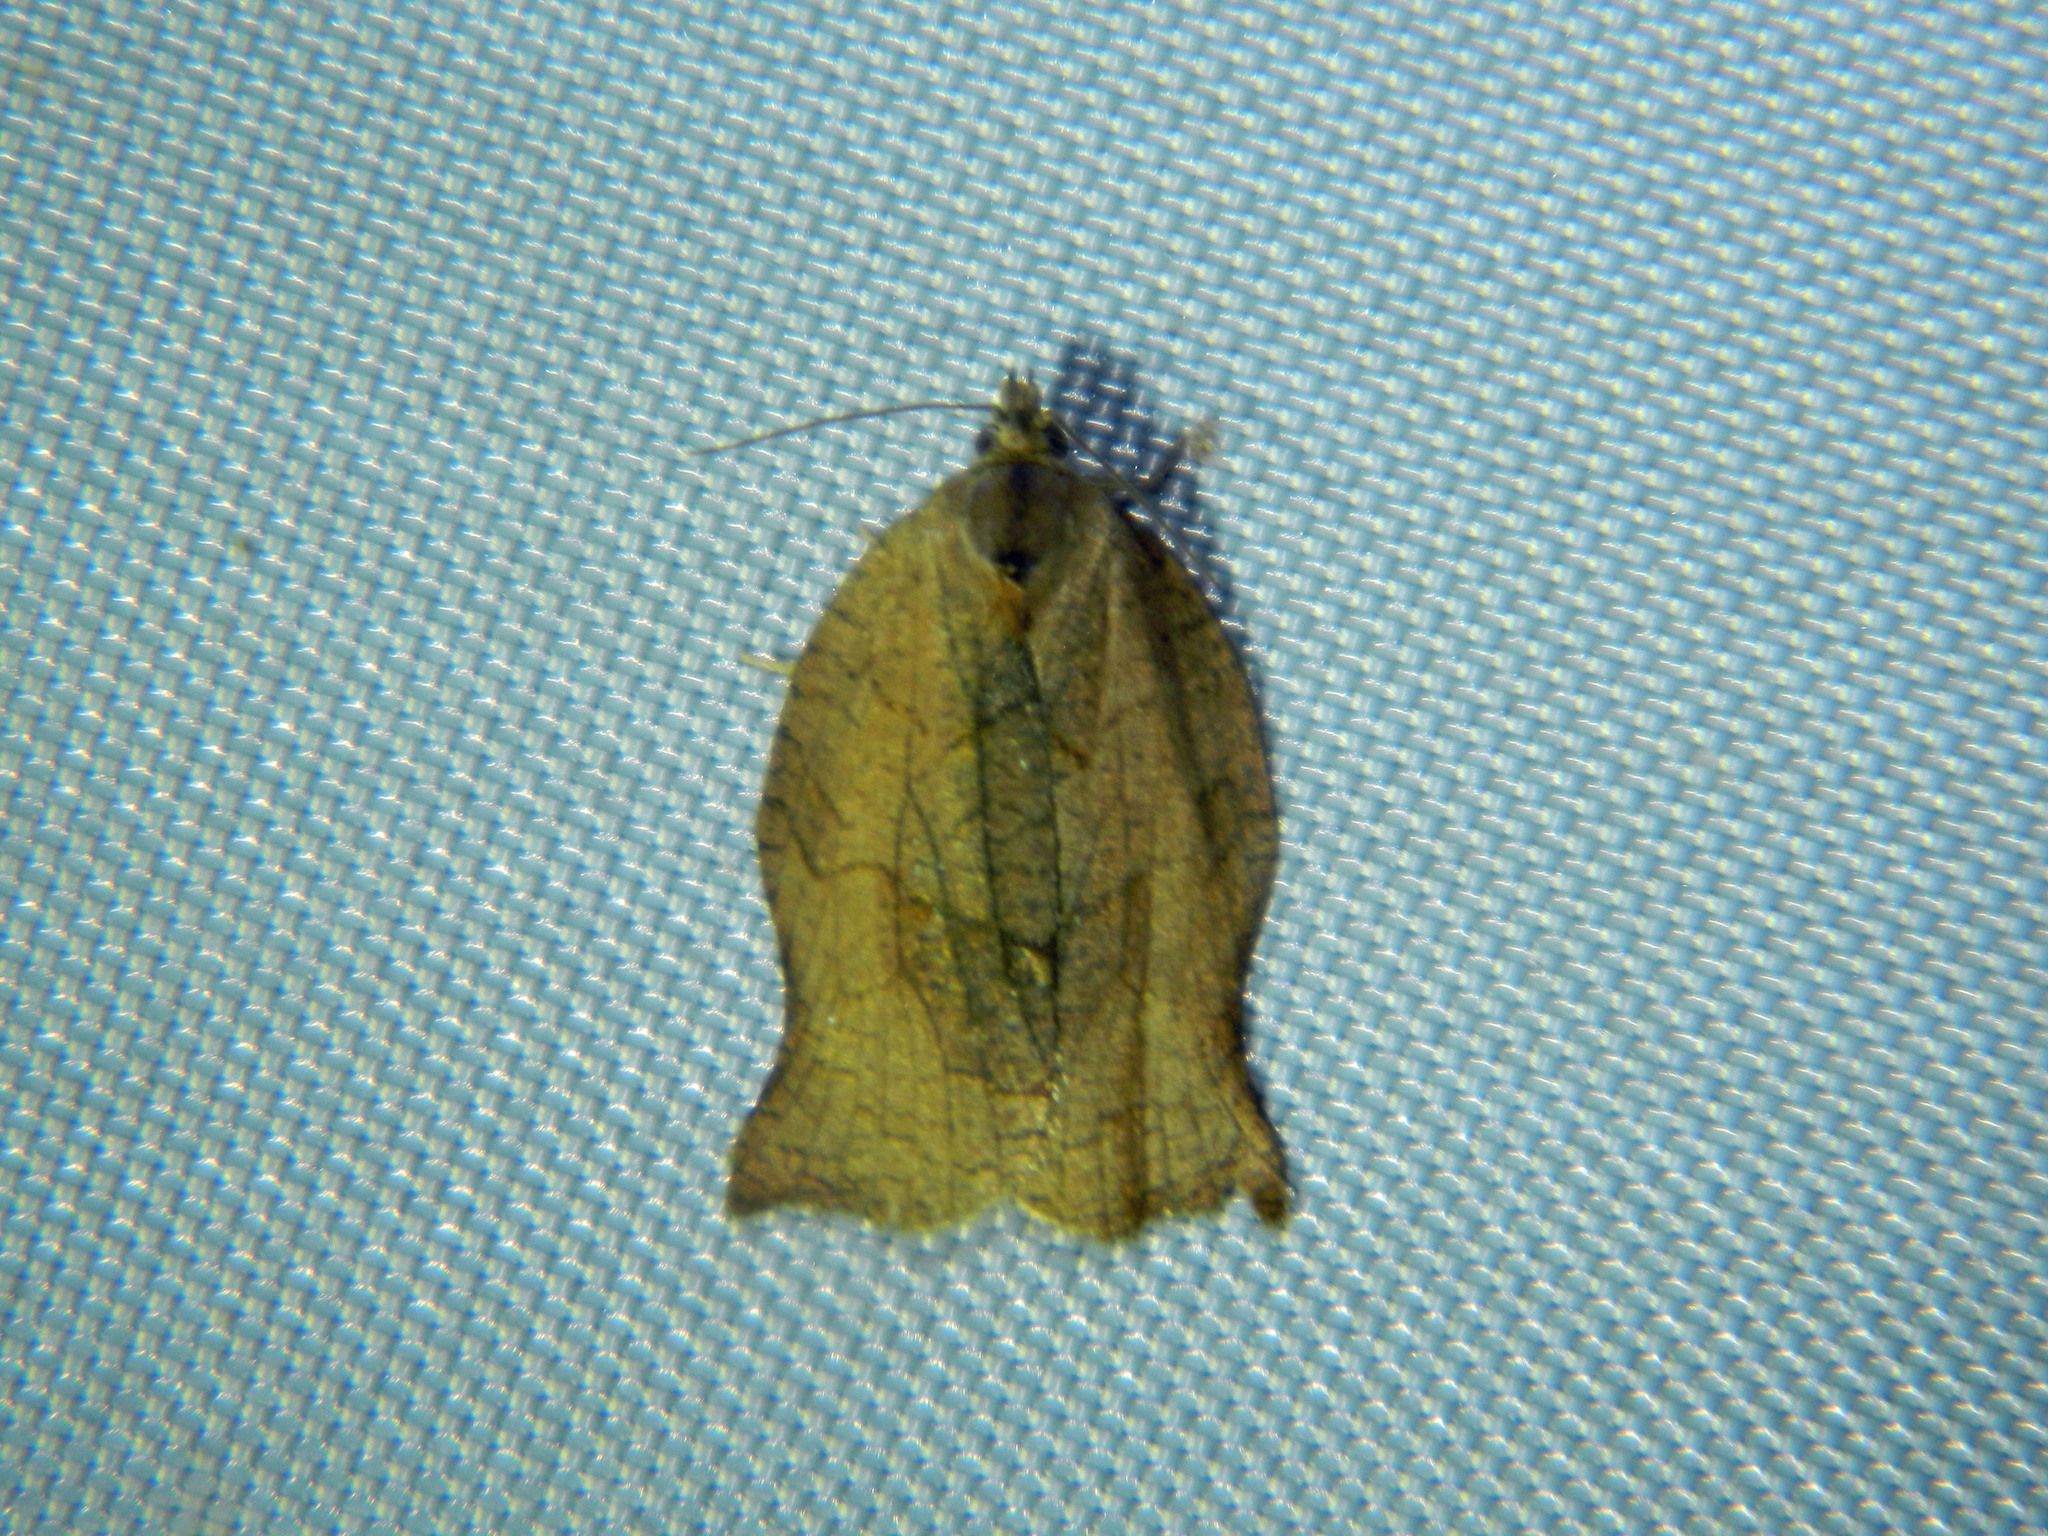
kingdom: Animalia
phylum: Arthropoda
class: Insecta
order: Lepidoptera
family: Tortricidae
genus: Archips
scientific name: Archips purpurana
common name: Omnivorous leafroller
